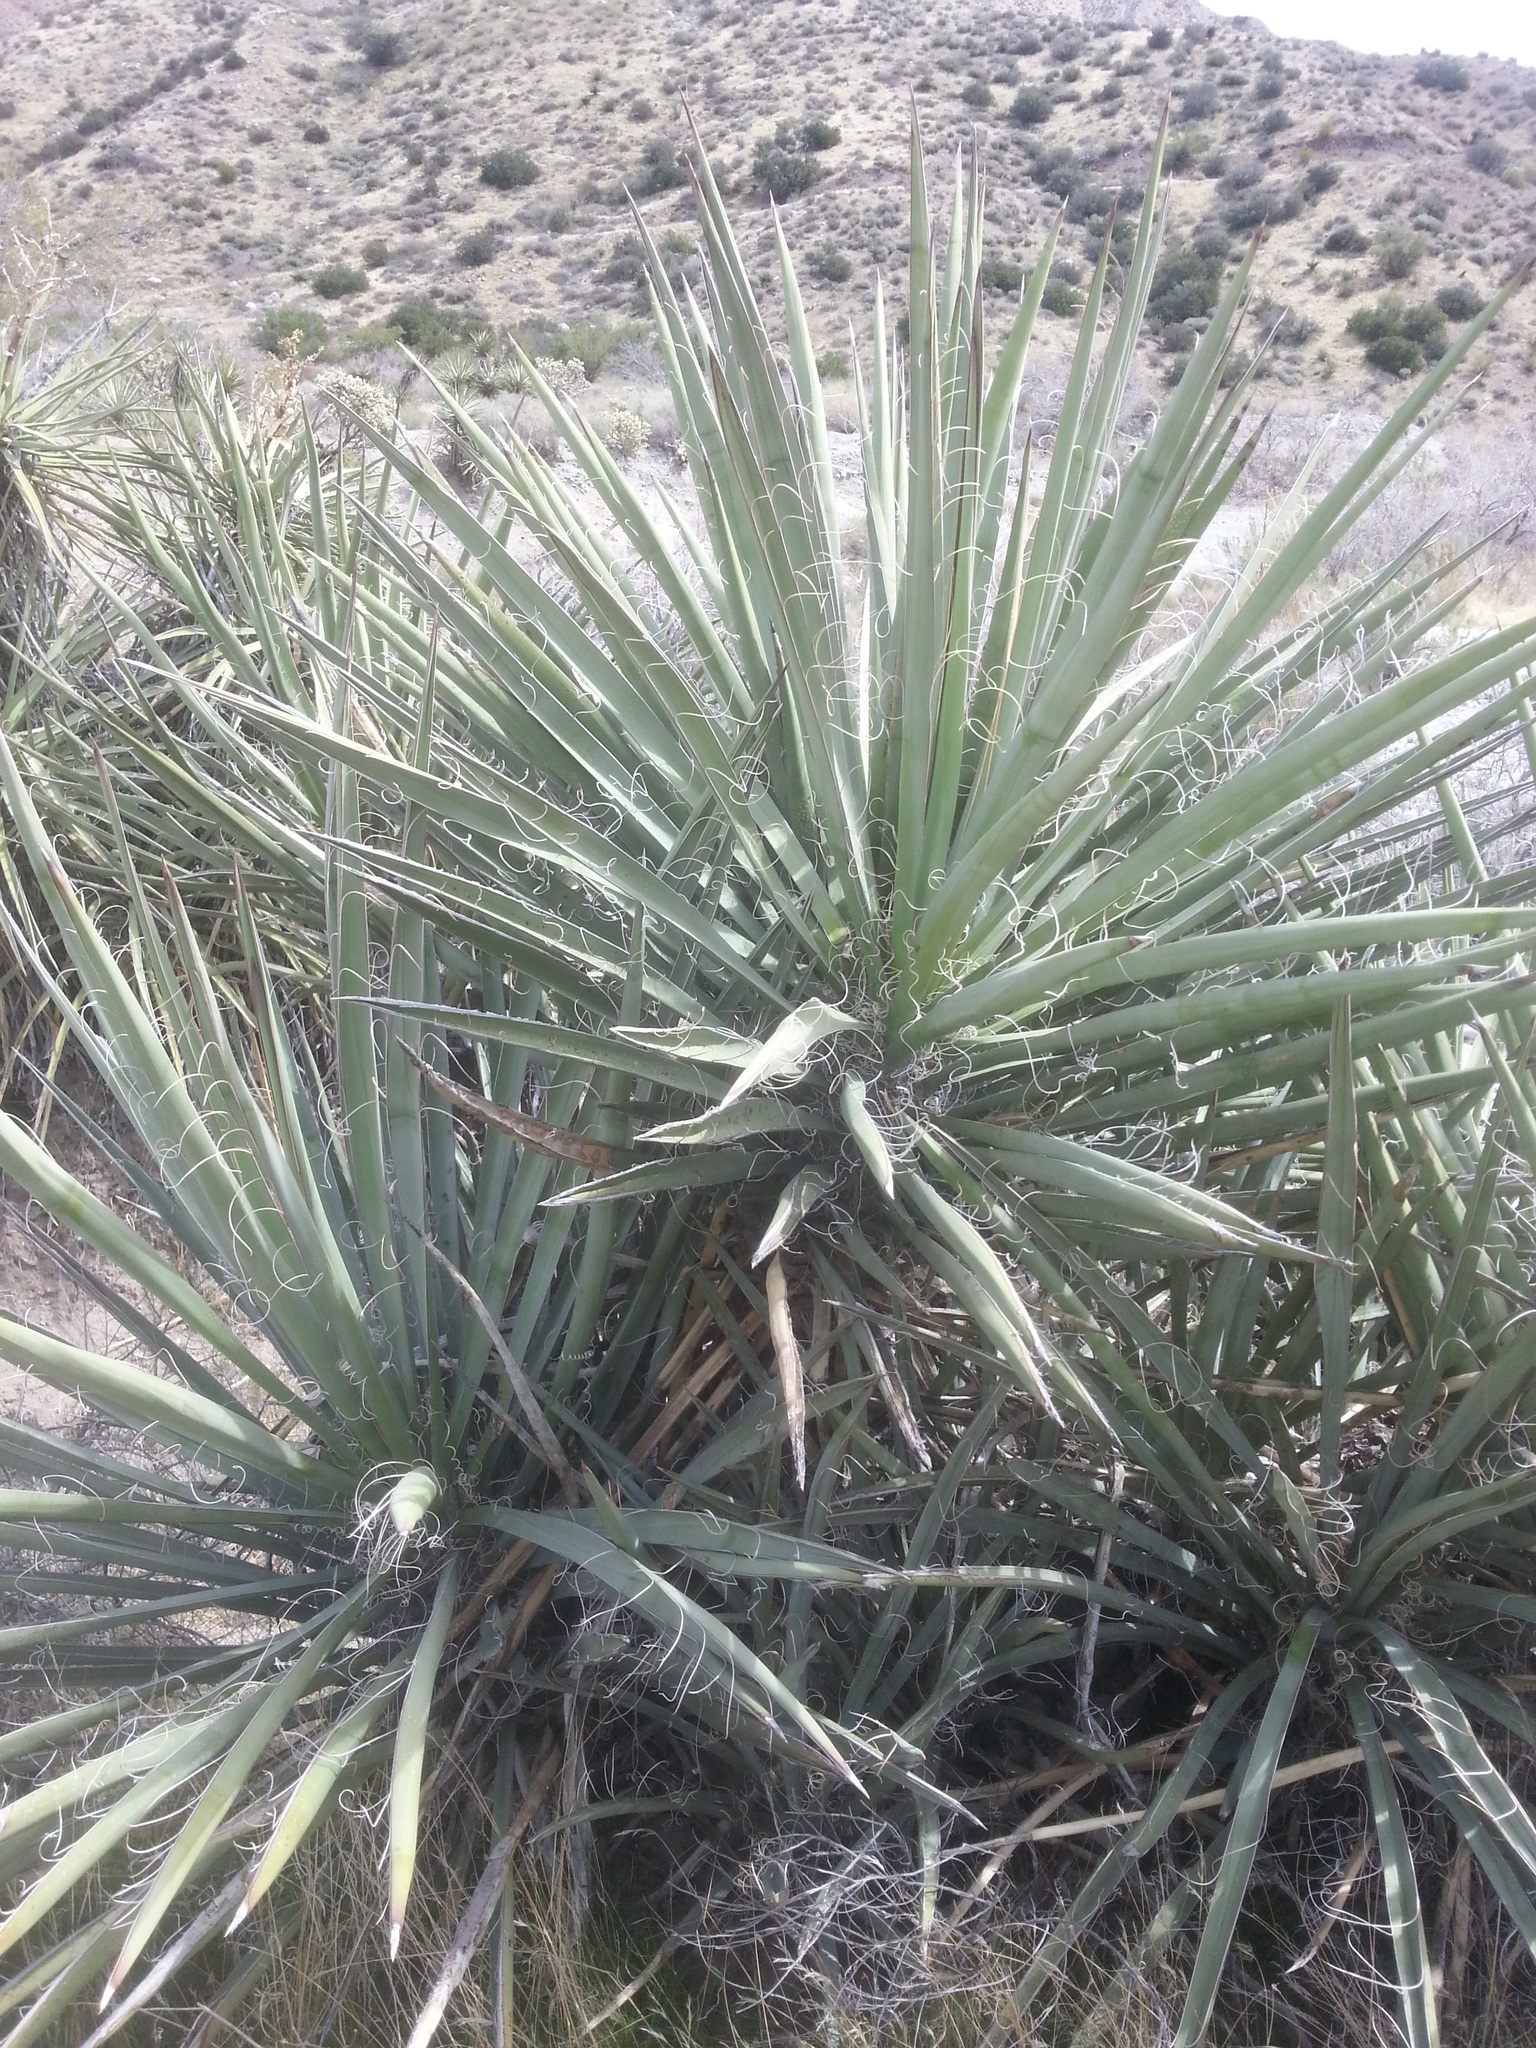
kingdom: Plantae
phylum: Tracheophyta
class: Liliopsida
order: Asparagales
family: Asparagaceae
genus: Yucca
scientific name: Yucca schidigera
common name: Mojave yucca
